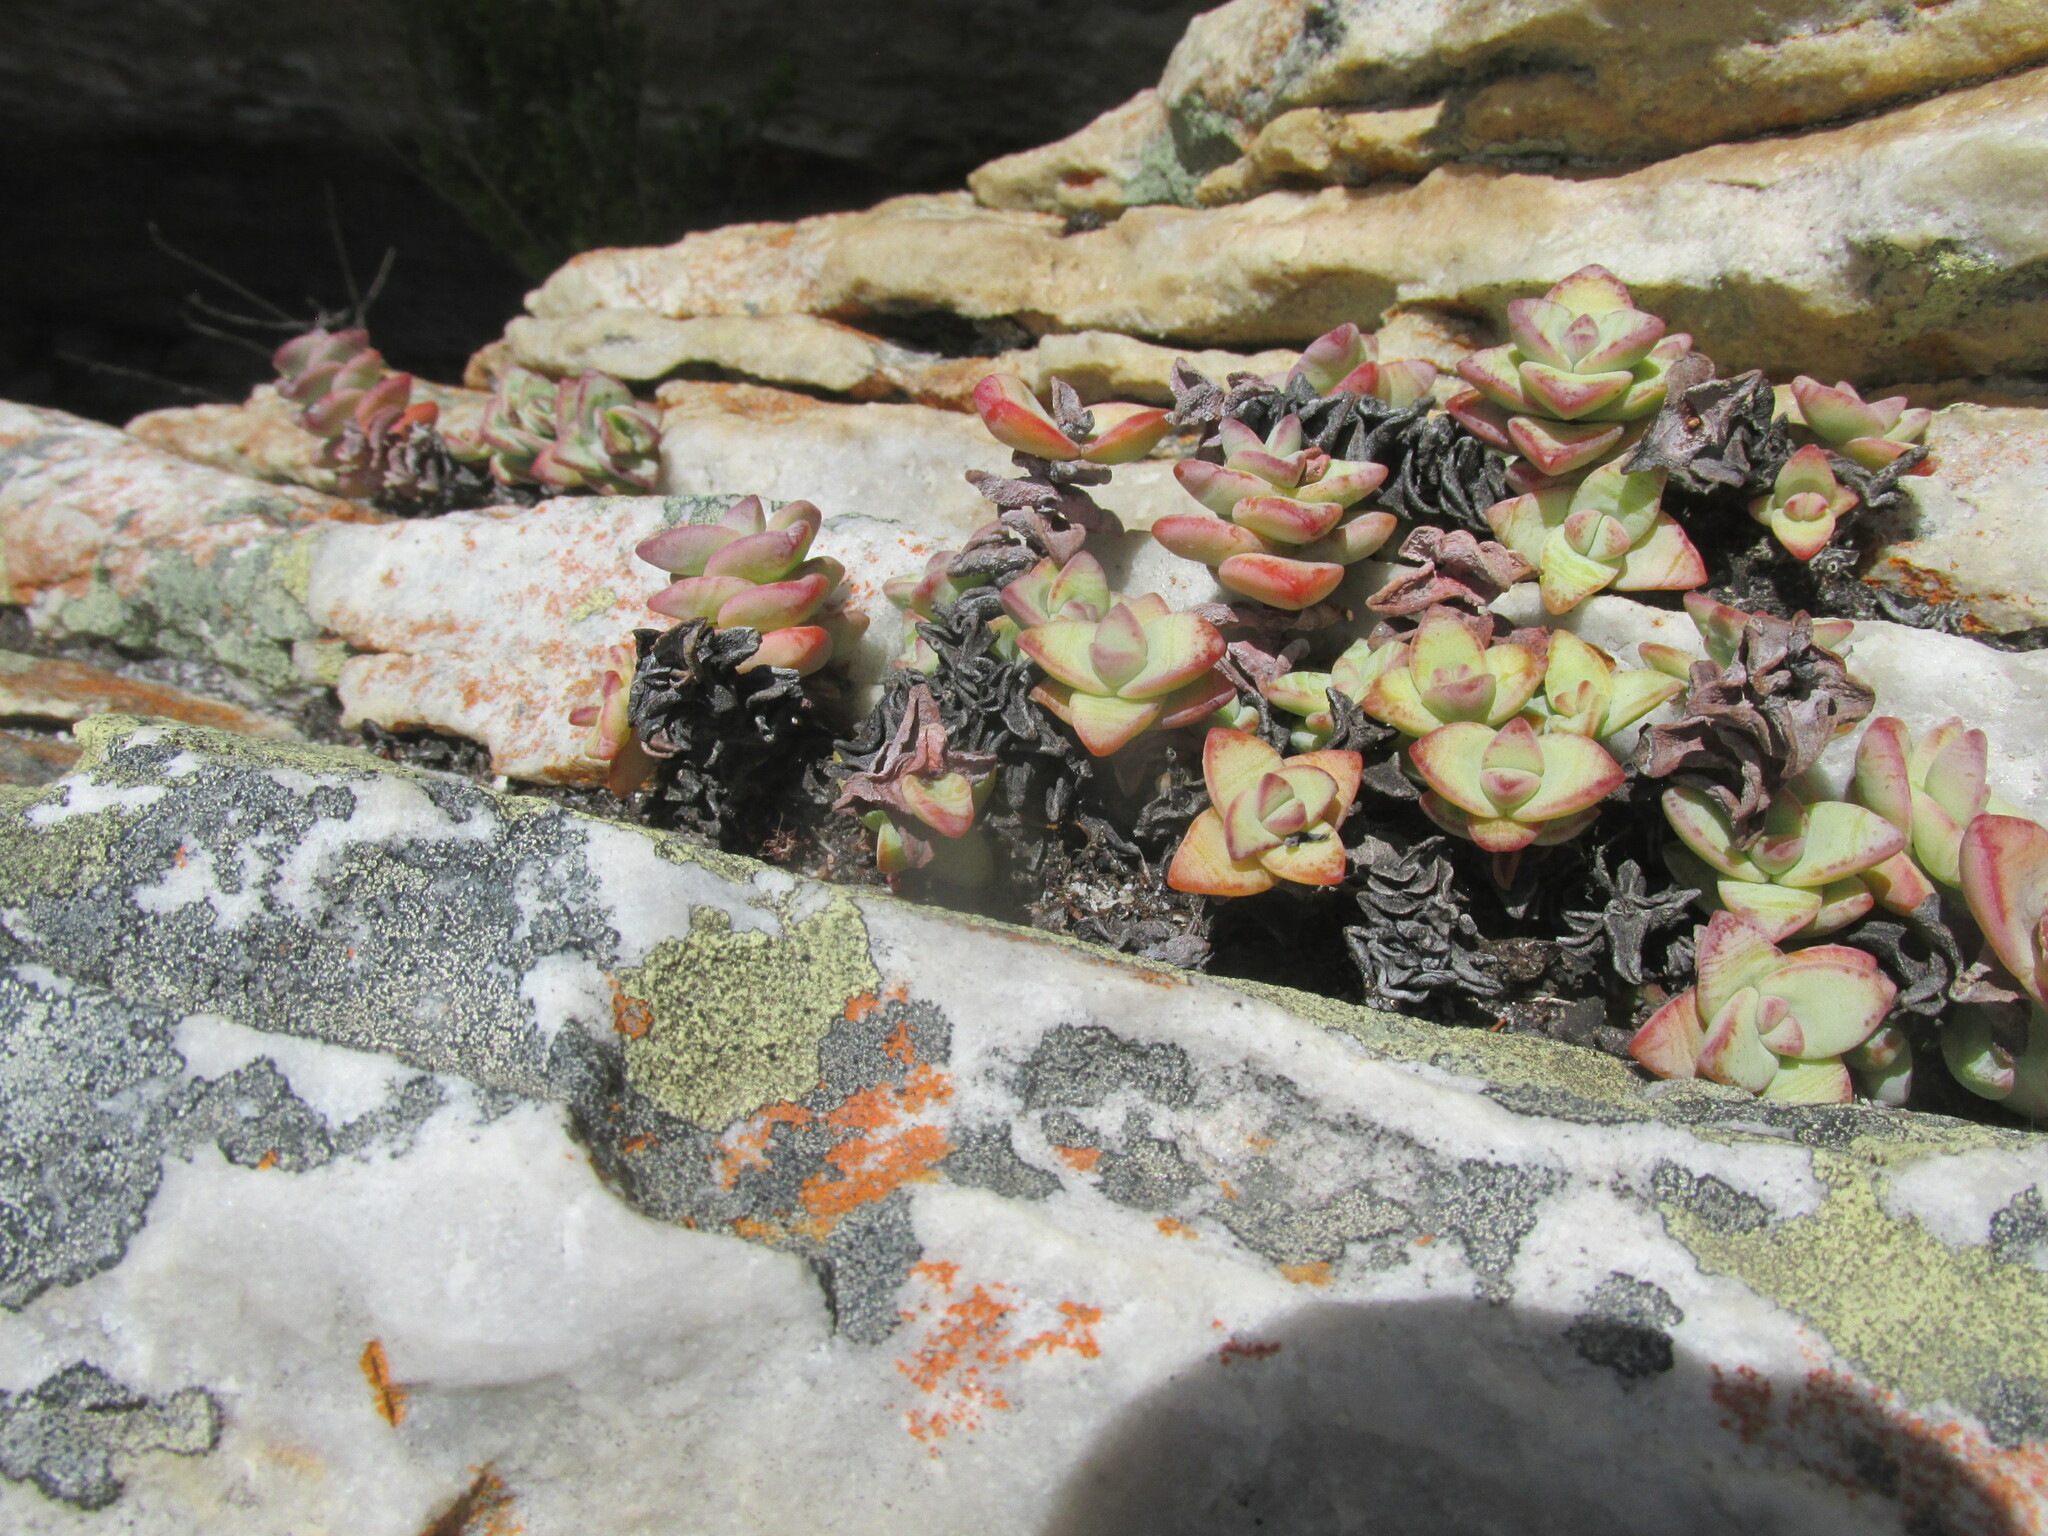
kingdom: Plantae
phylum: Tracheophyta
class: Magnoliopsida
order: Saxifragales
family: Crassulaceae
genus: Crassula
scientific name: Crassula rupestris
